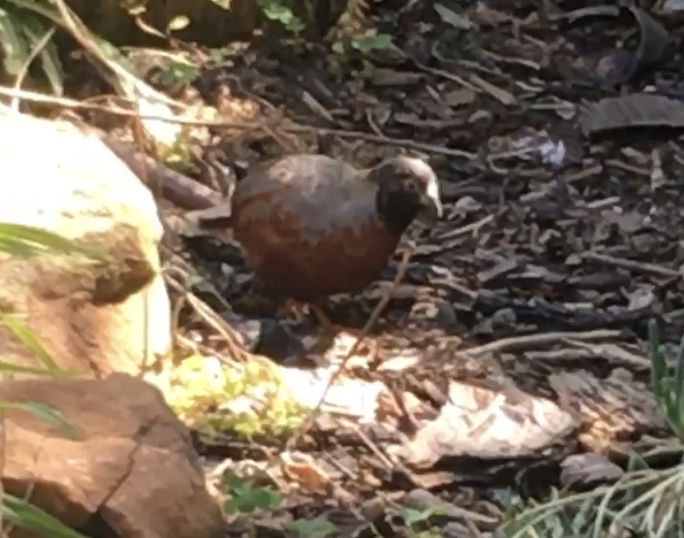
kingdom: Animalia
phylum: Chordata
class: Aves
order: Galliformes
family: Phasianidae
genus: Synoicus
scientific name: Synoicus chinensis
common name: Blue-breasted quail
